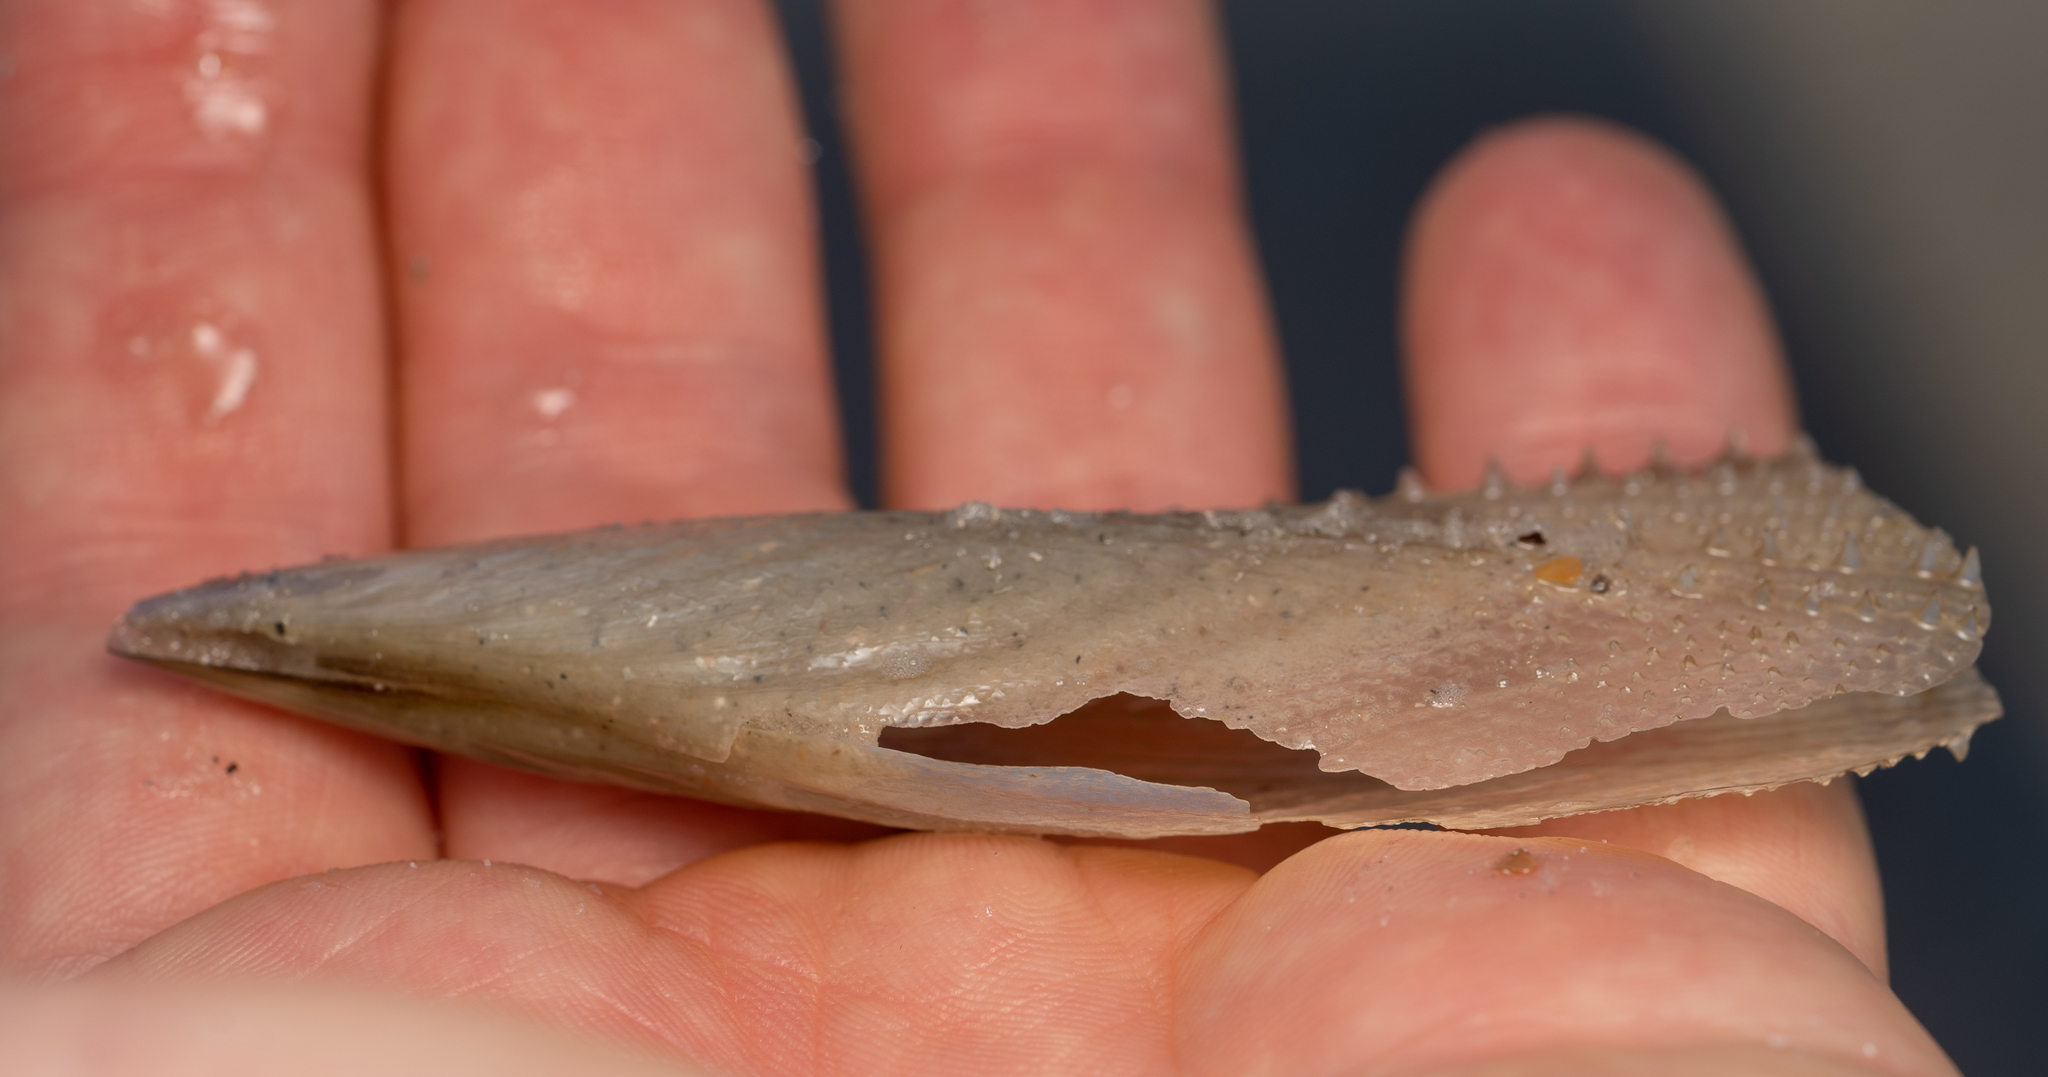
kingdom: Animalia
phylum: Mollusca
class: Bivalvia
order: Ostreida
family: Pinnidae
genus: Atrina
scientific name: Atrina serrata
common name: Saw-toothed penshell
